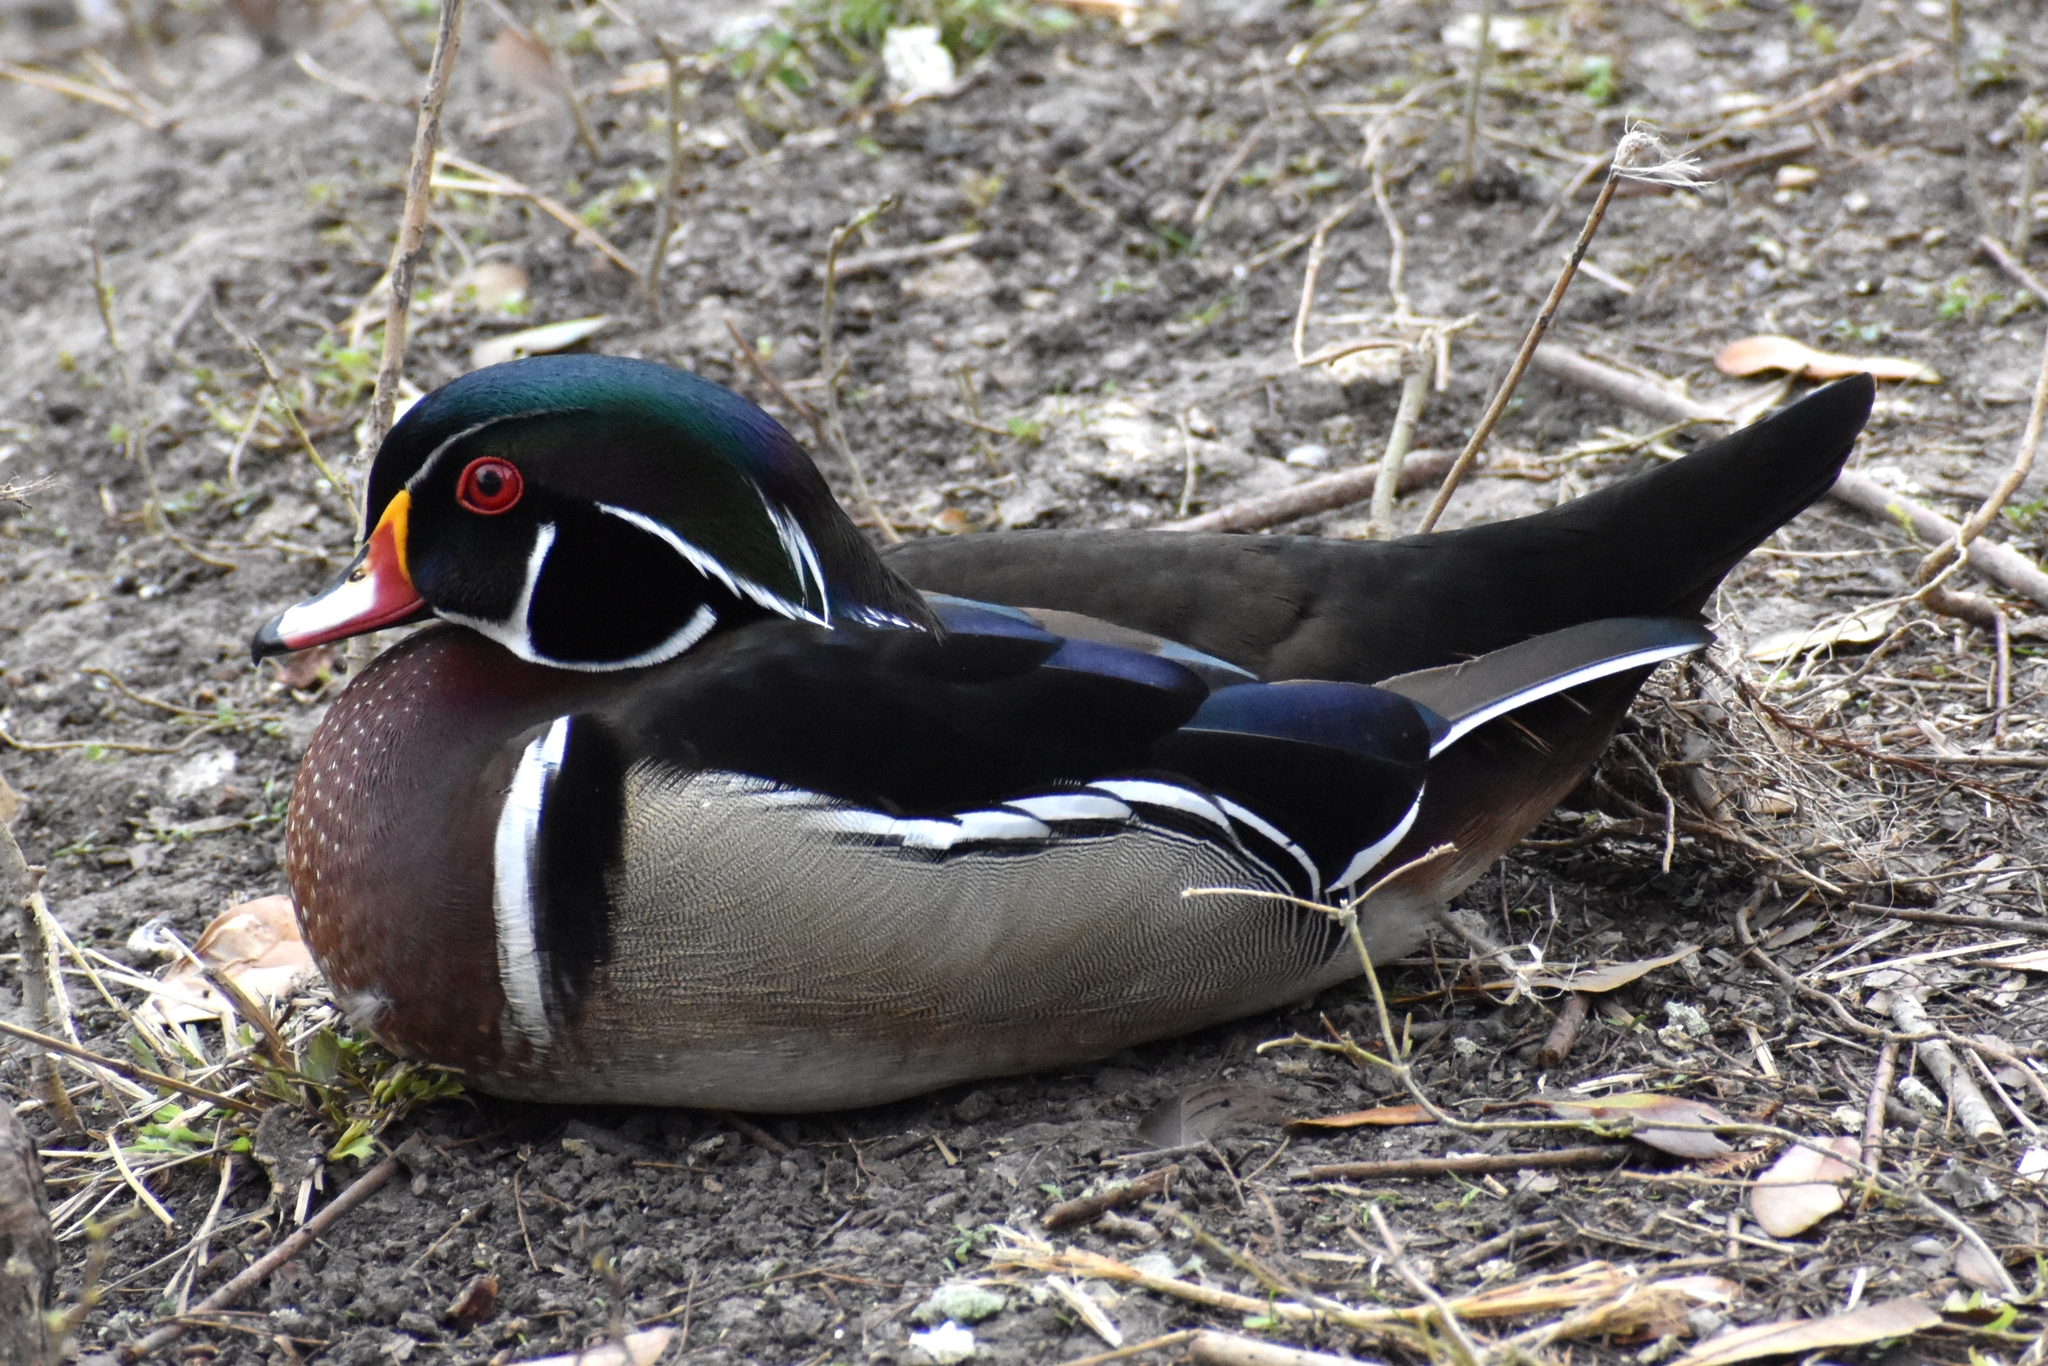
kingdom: Animalia
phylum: Chordata
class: Aves
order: Anseriformes
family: Anatidae
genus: Aix
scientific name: Aix sponsa
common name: Wood duck
